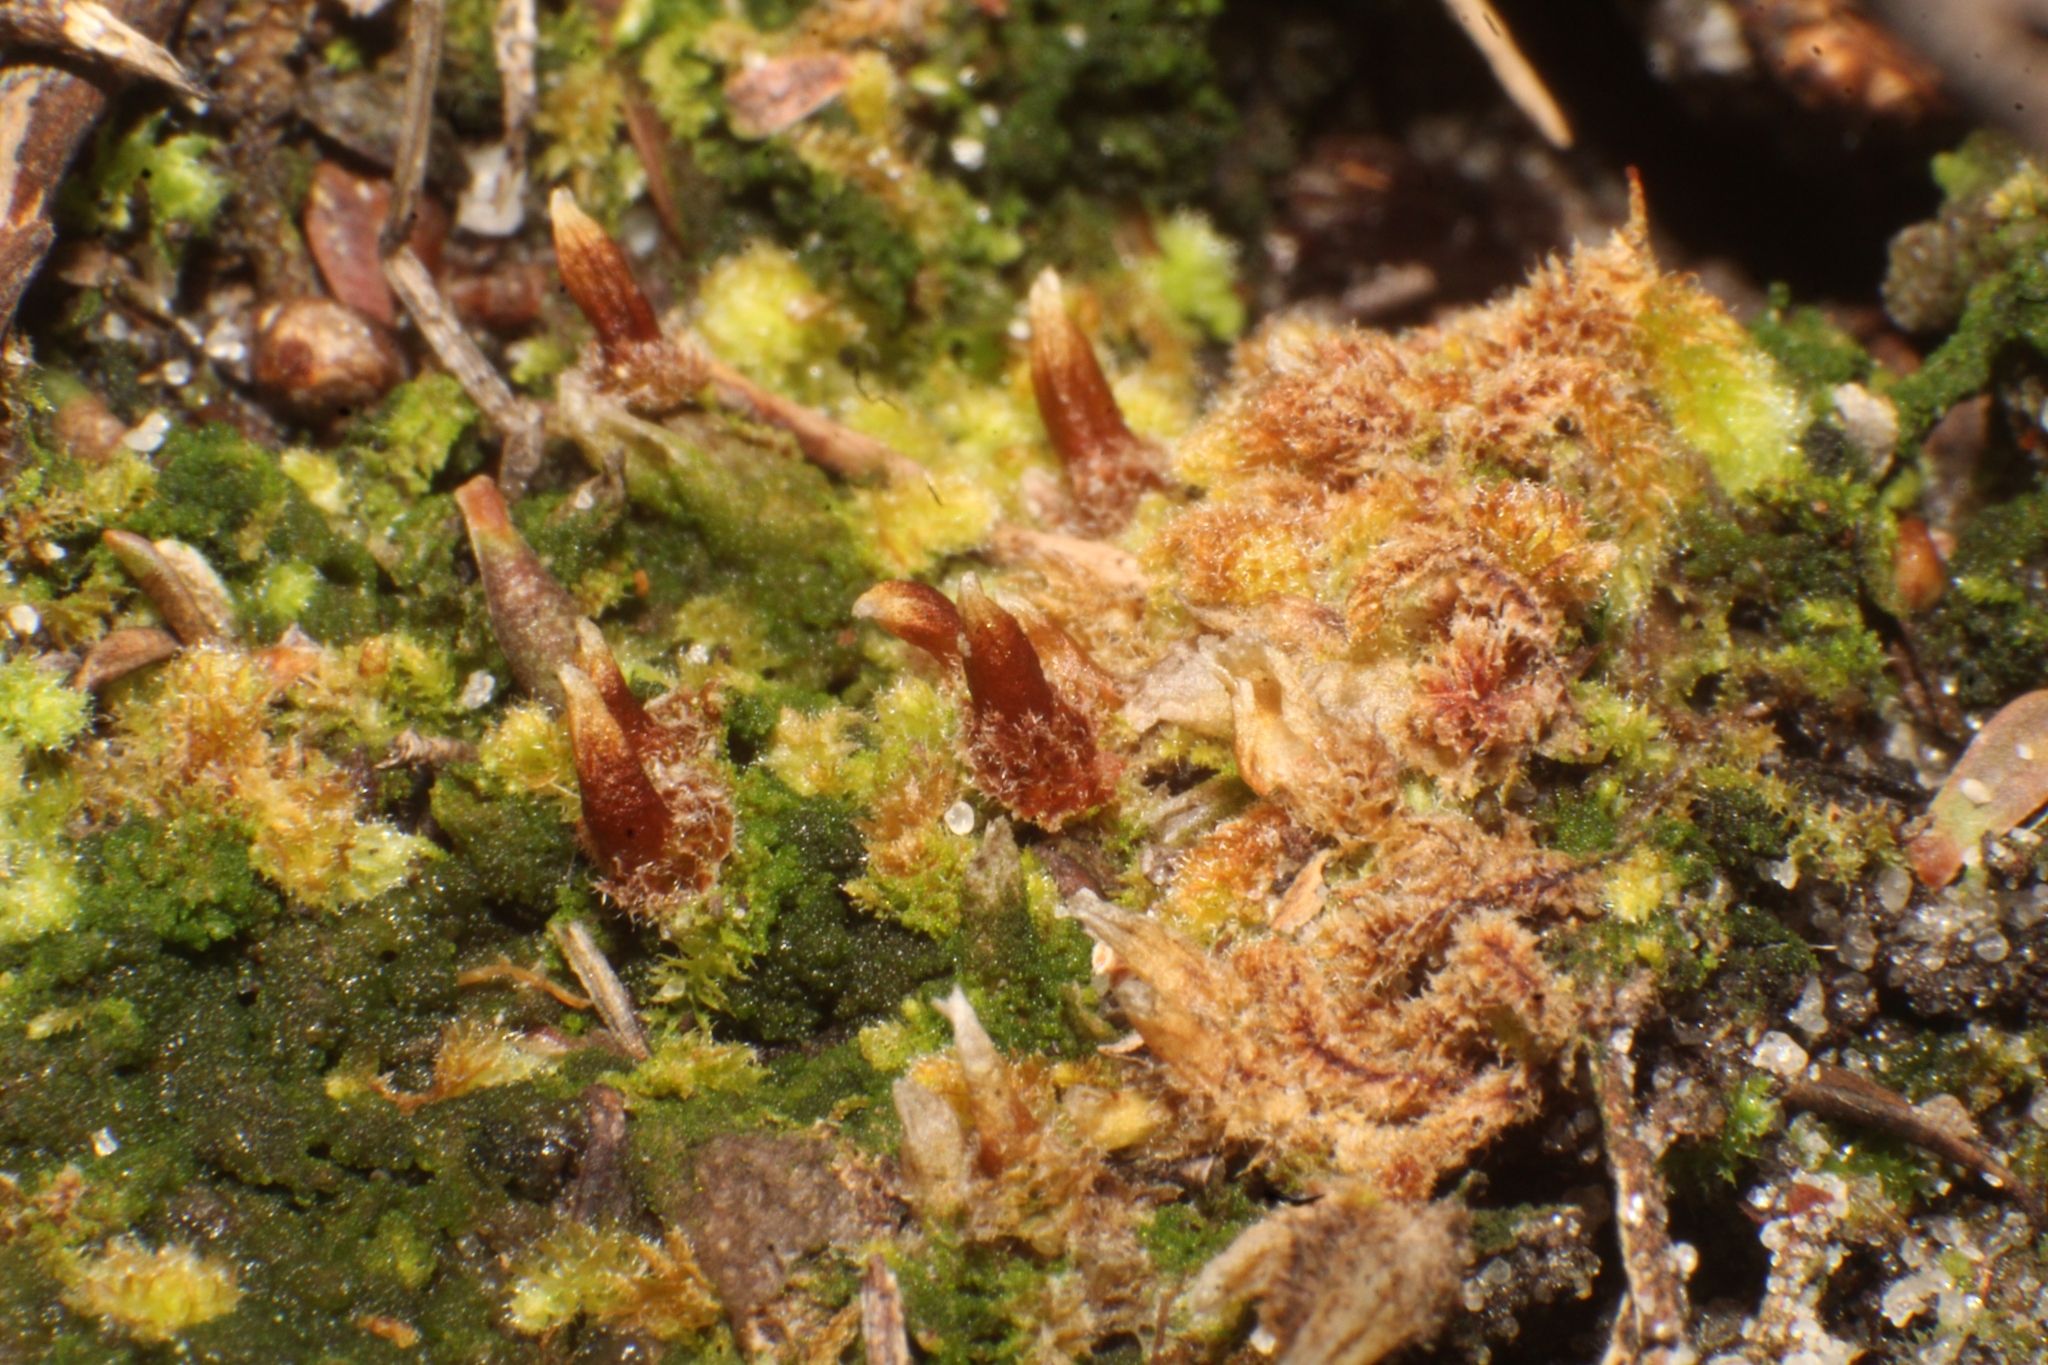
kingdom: Plantae
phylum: Marchantiophyta
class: Jungermanniopsida
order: Jungermanniales
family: Cephaloziellaceae
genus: Chaetophyllopsis
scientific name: Chaetophyllopsis whiteleggei
